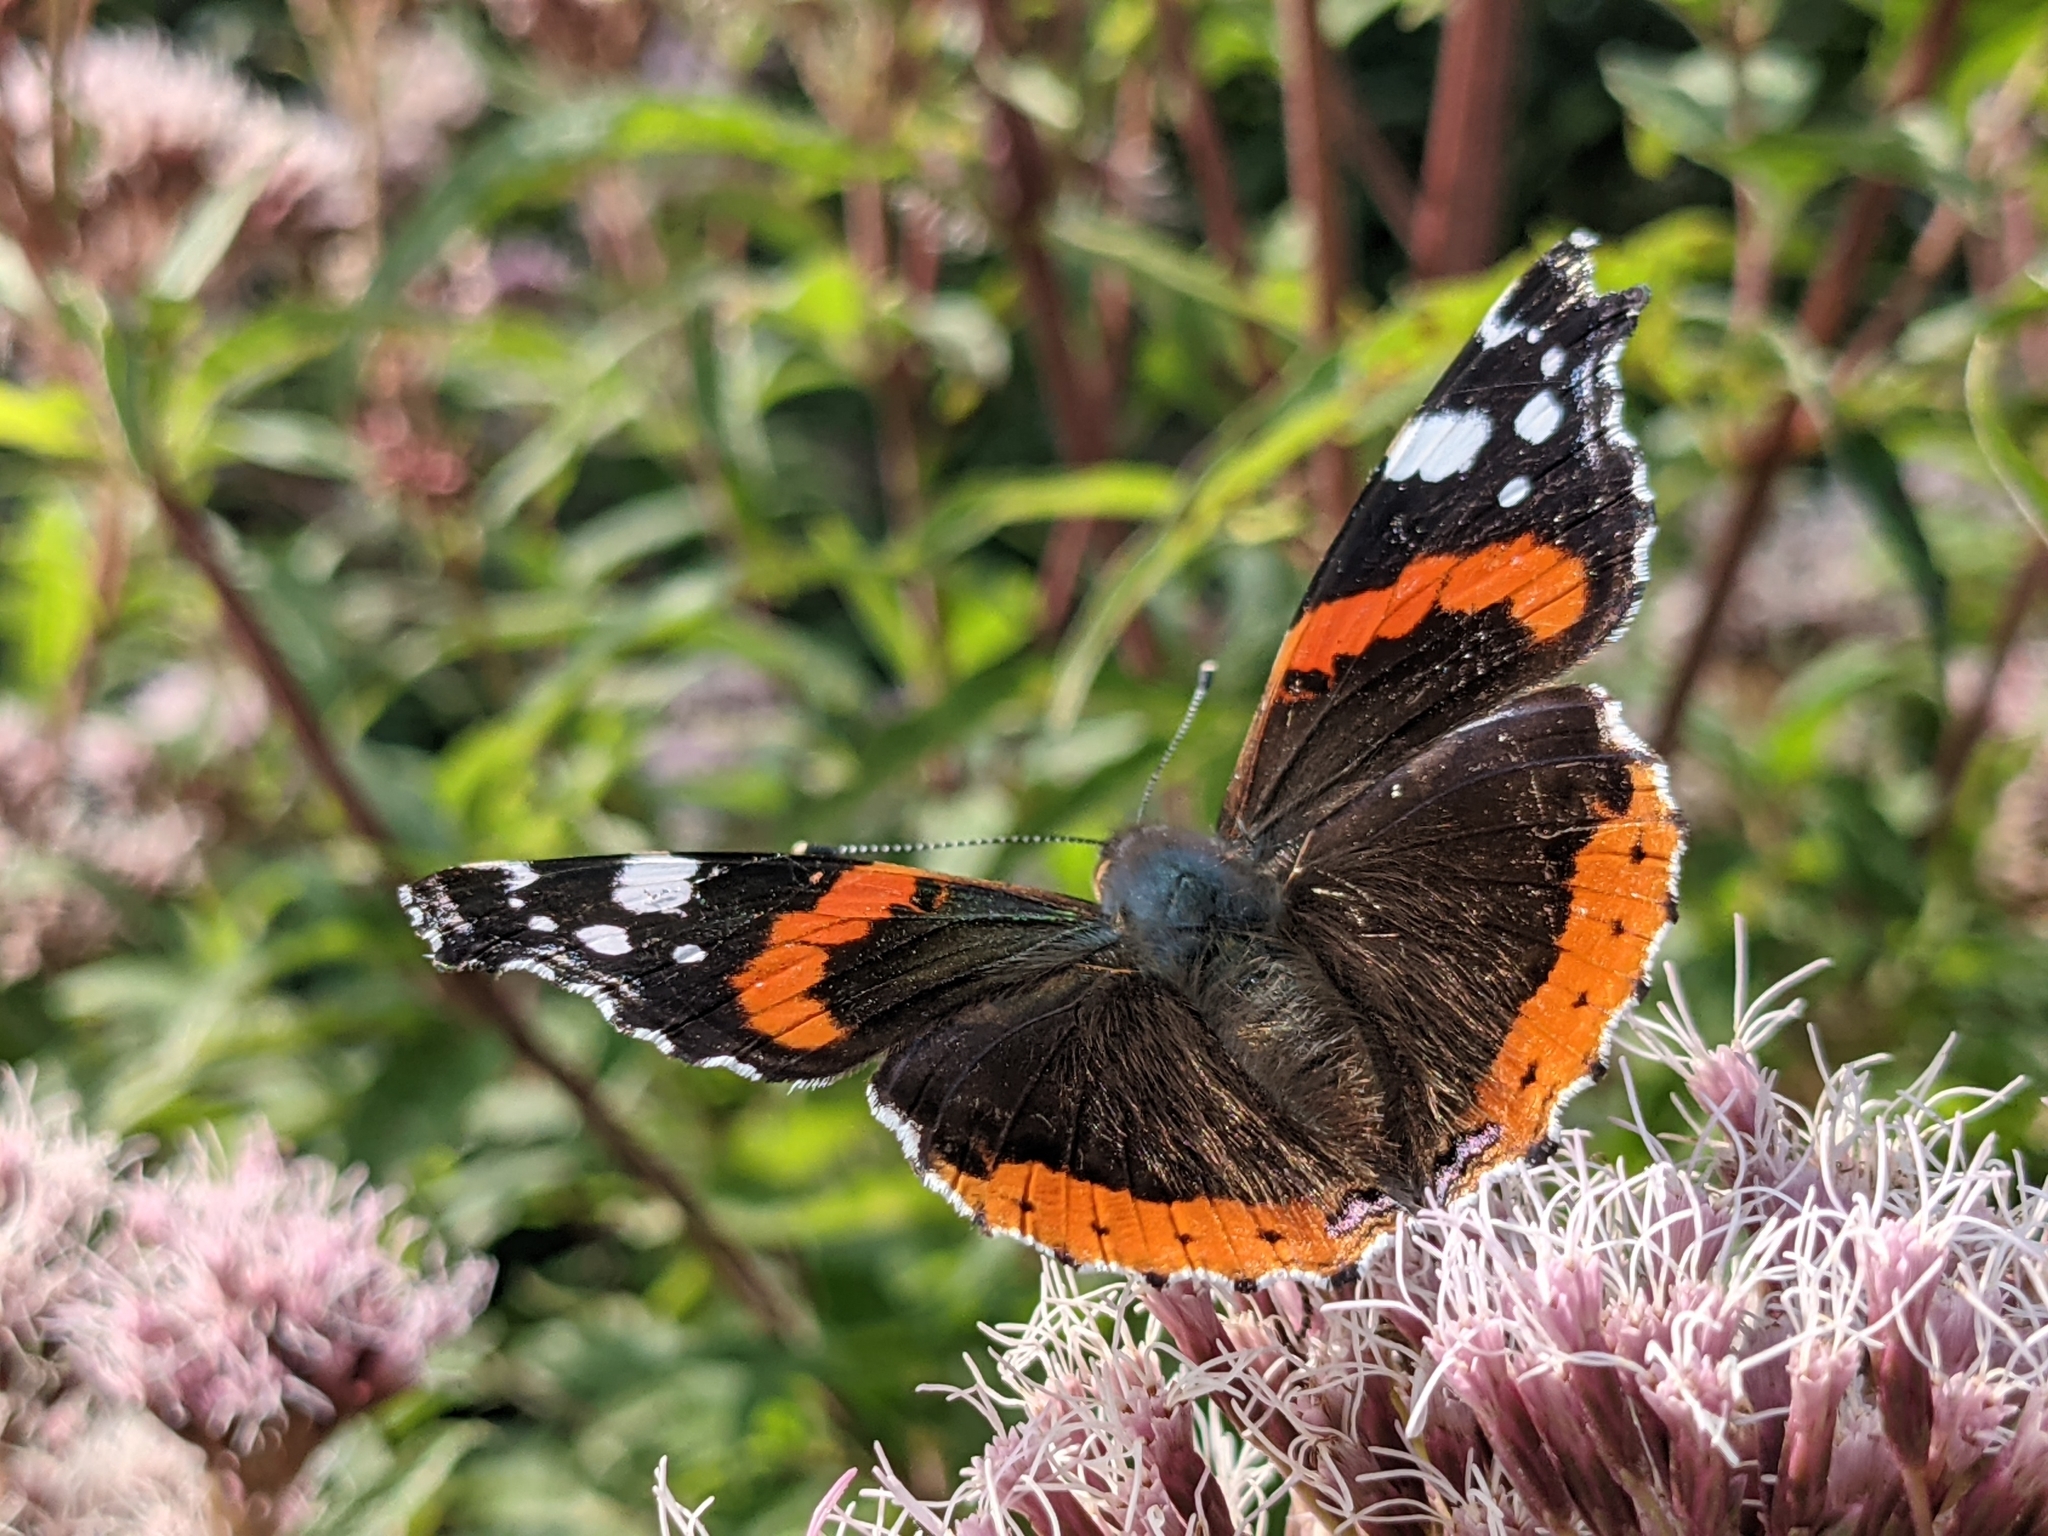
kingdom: Animalia
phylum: Arthropoda
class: Insecta
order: Lepidoptera
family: Nymphalidae
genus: Vanessa
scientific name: Vanessa atalanta
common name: Red admiral
